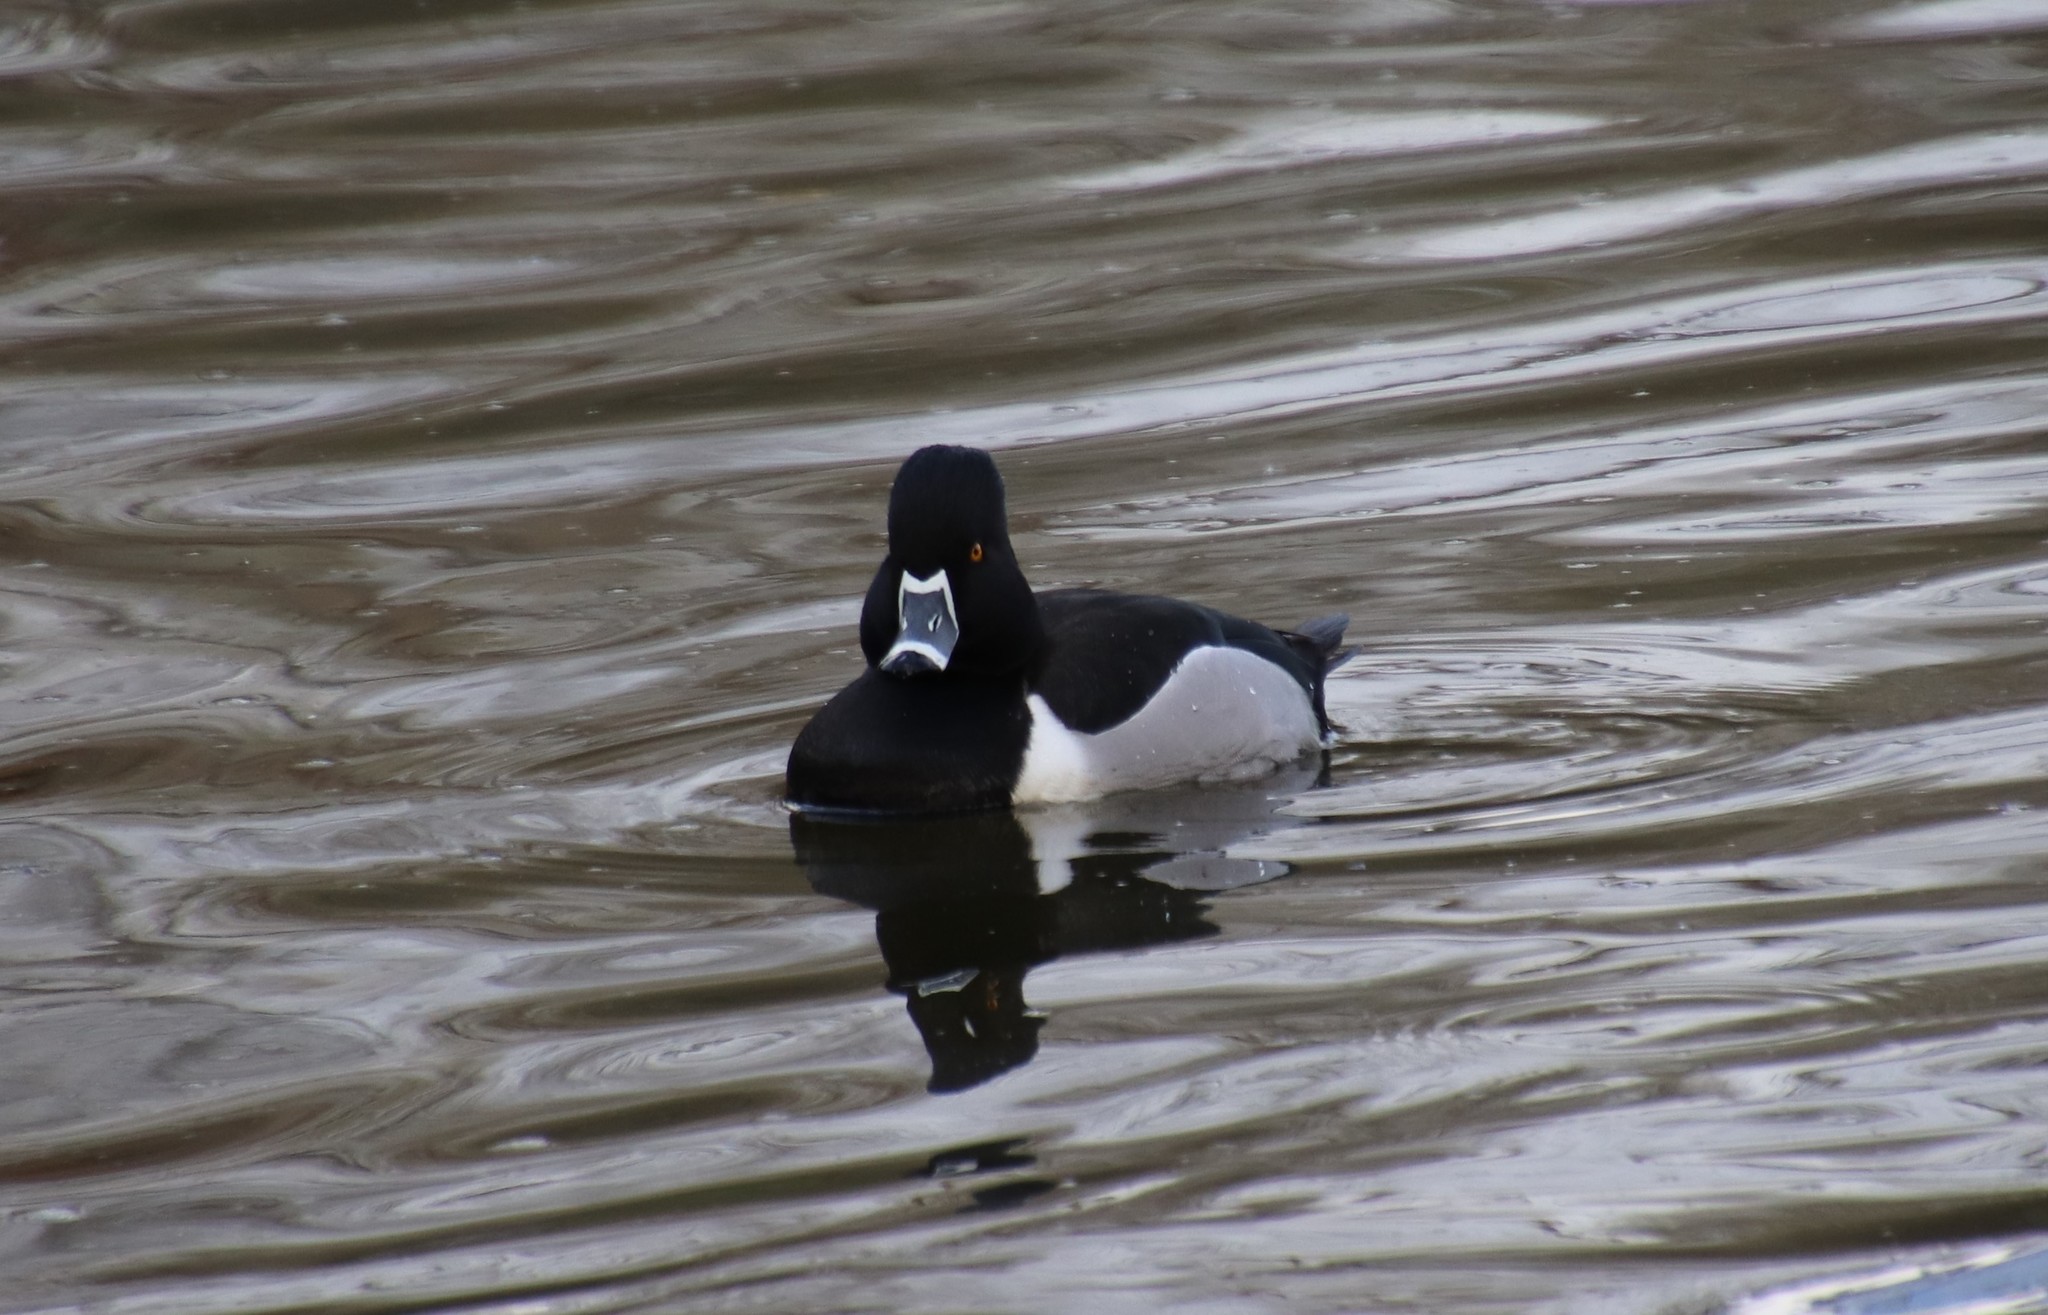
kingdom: Animalia
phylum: Chordata
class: Aves
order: Anseriformes
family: Anatidae
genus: Aythya
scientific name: Aythya collaris
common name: Ring-necked duck
